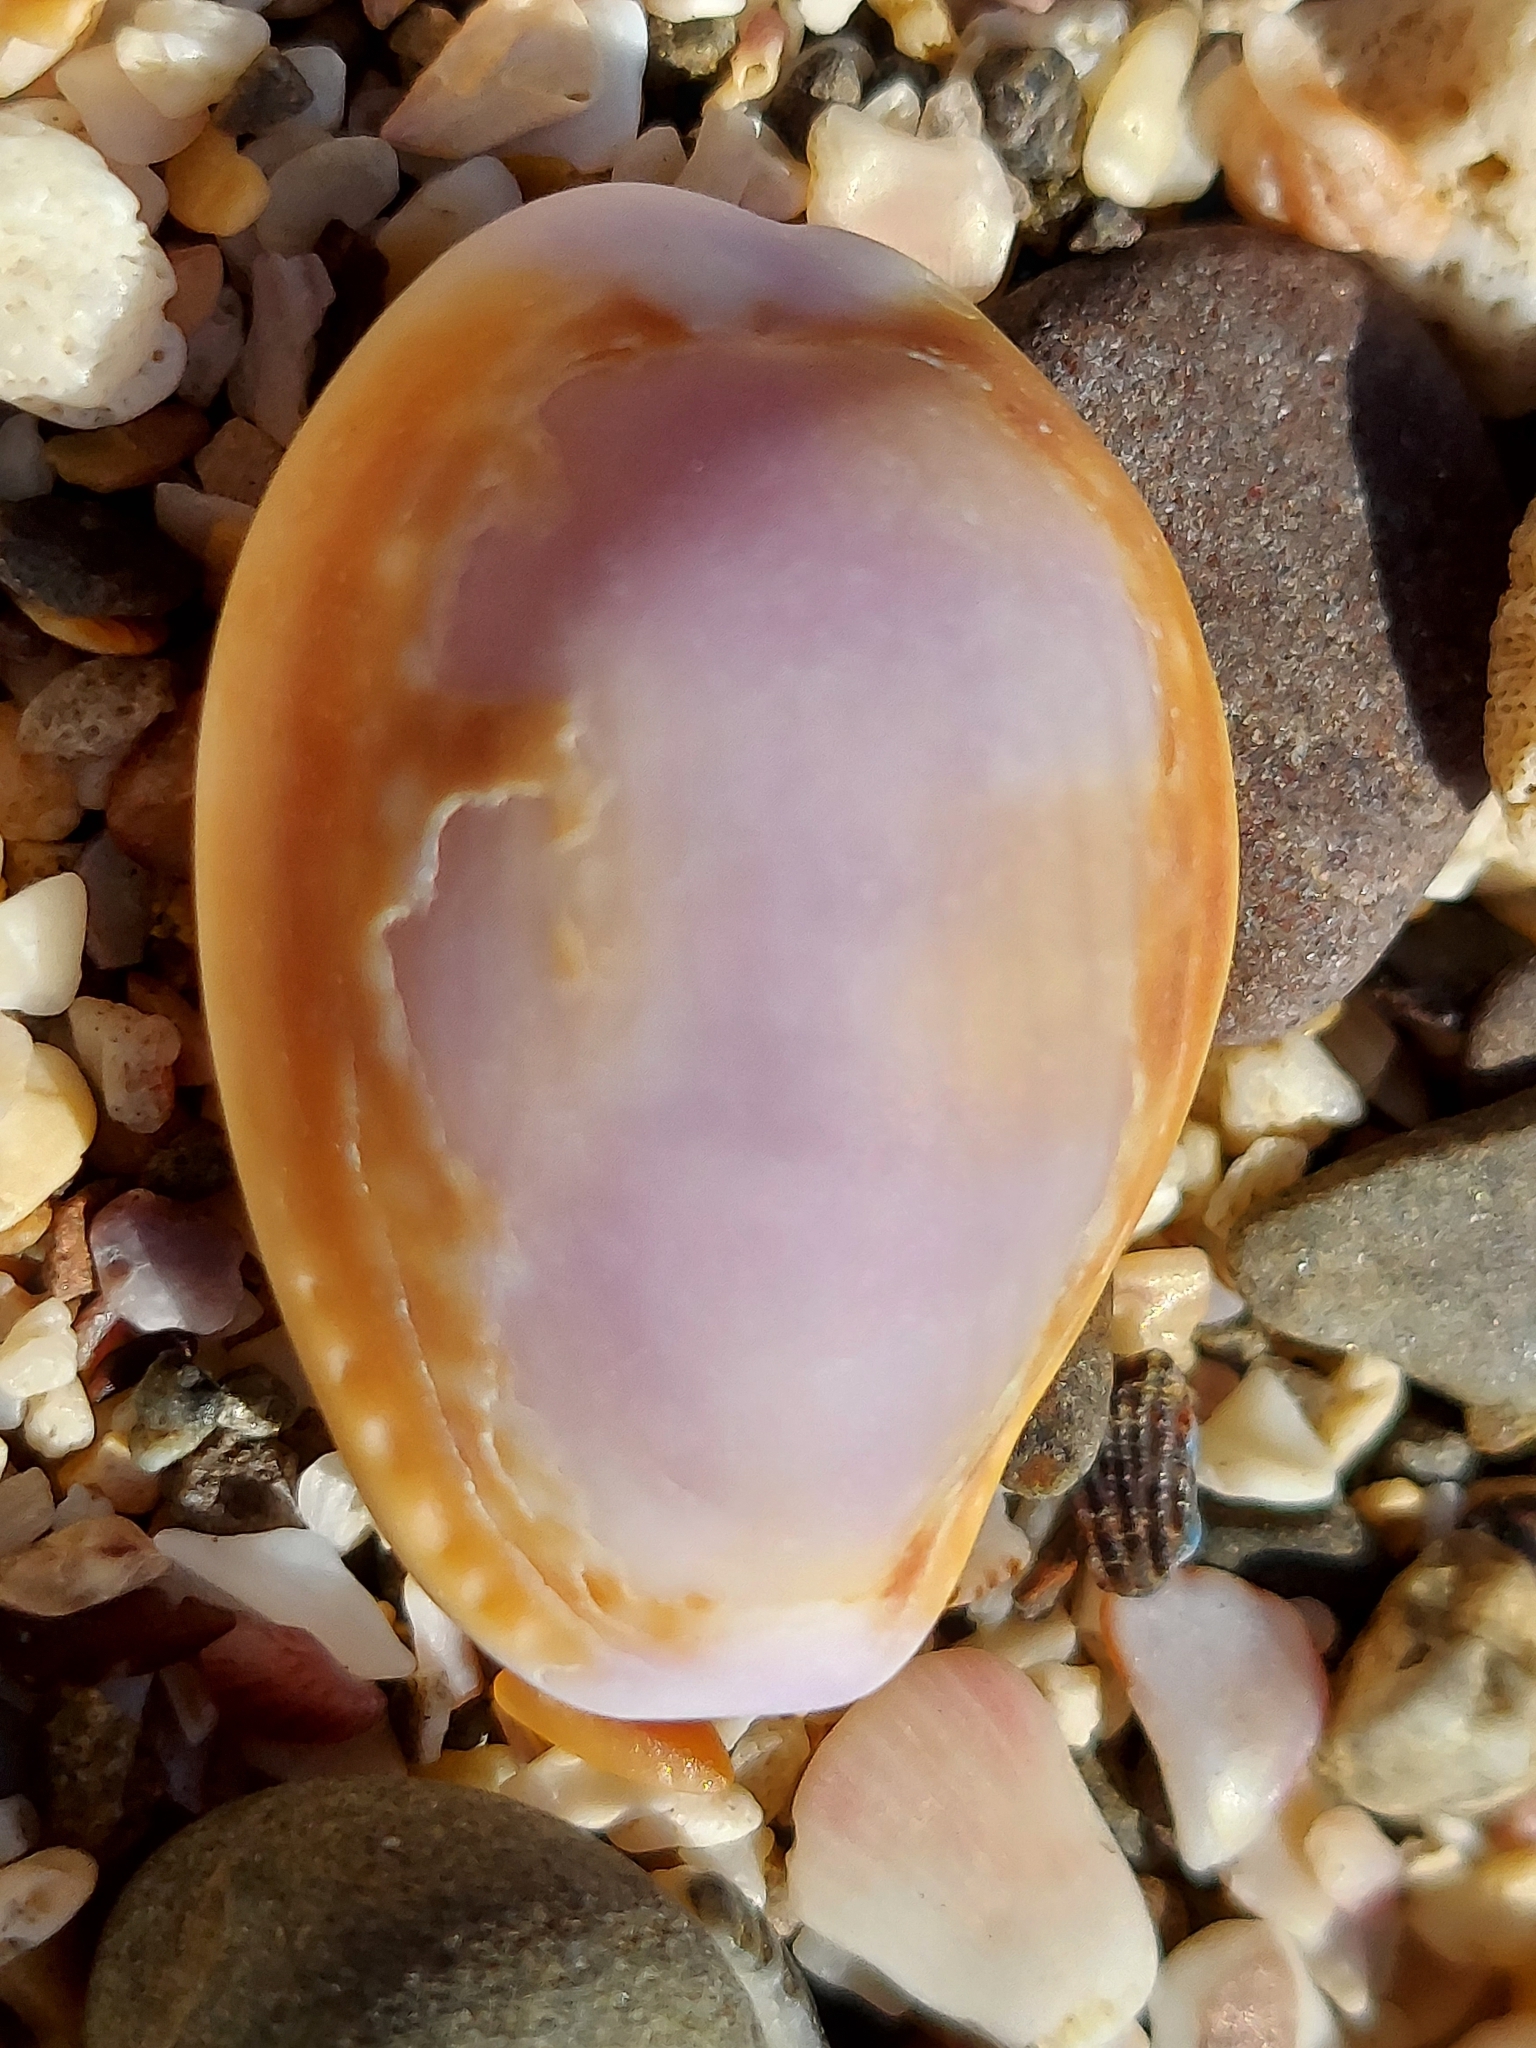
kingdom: Animalia
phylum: Mollusca
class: Gastropoda
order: Littorinimorpha
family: Cypraeidae
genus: Naria
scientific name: Naria helvola
